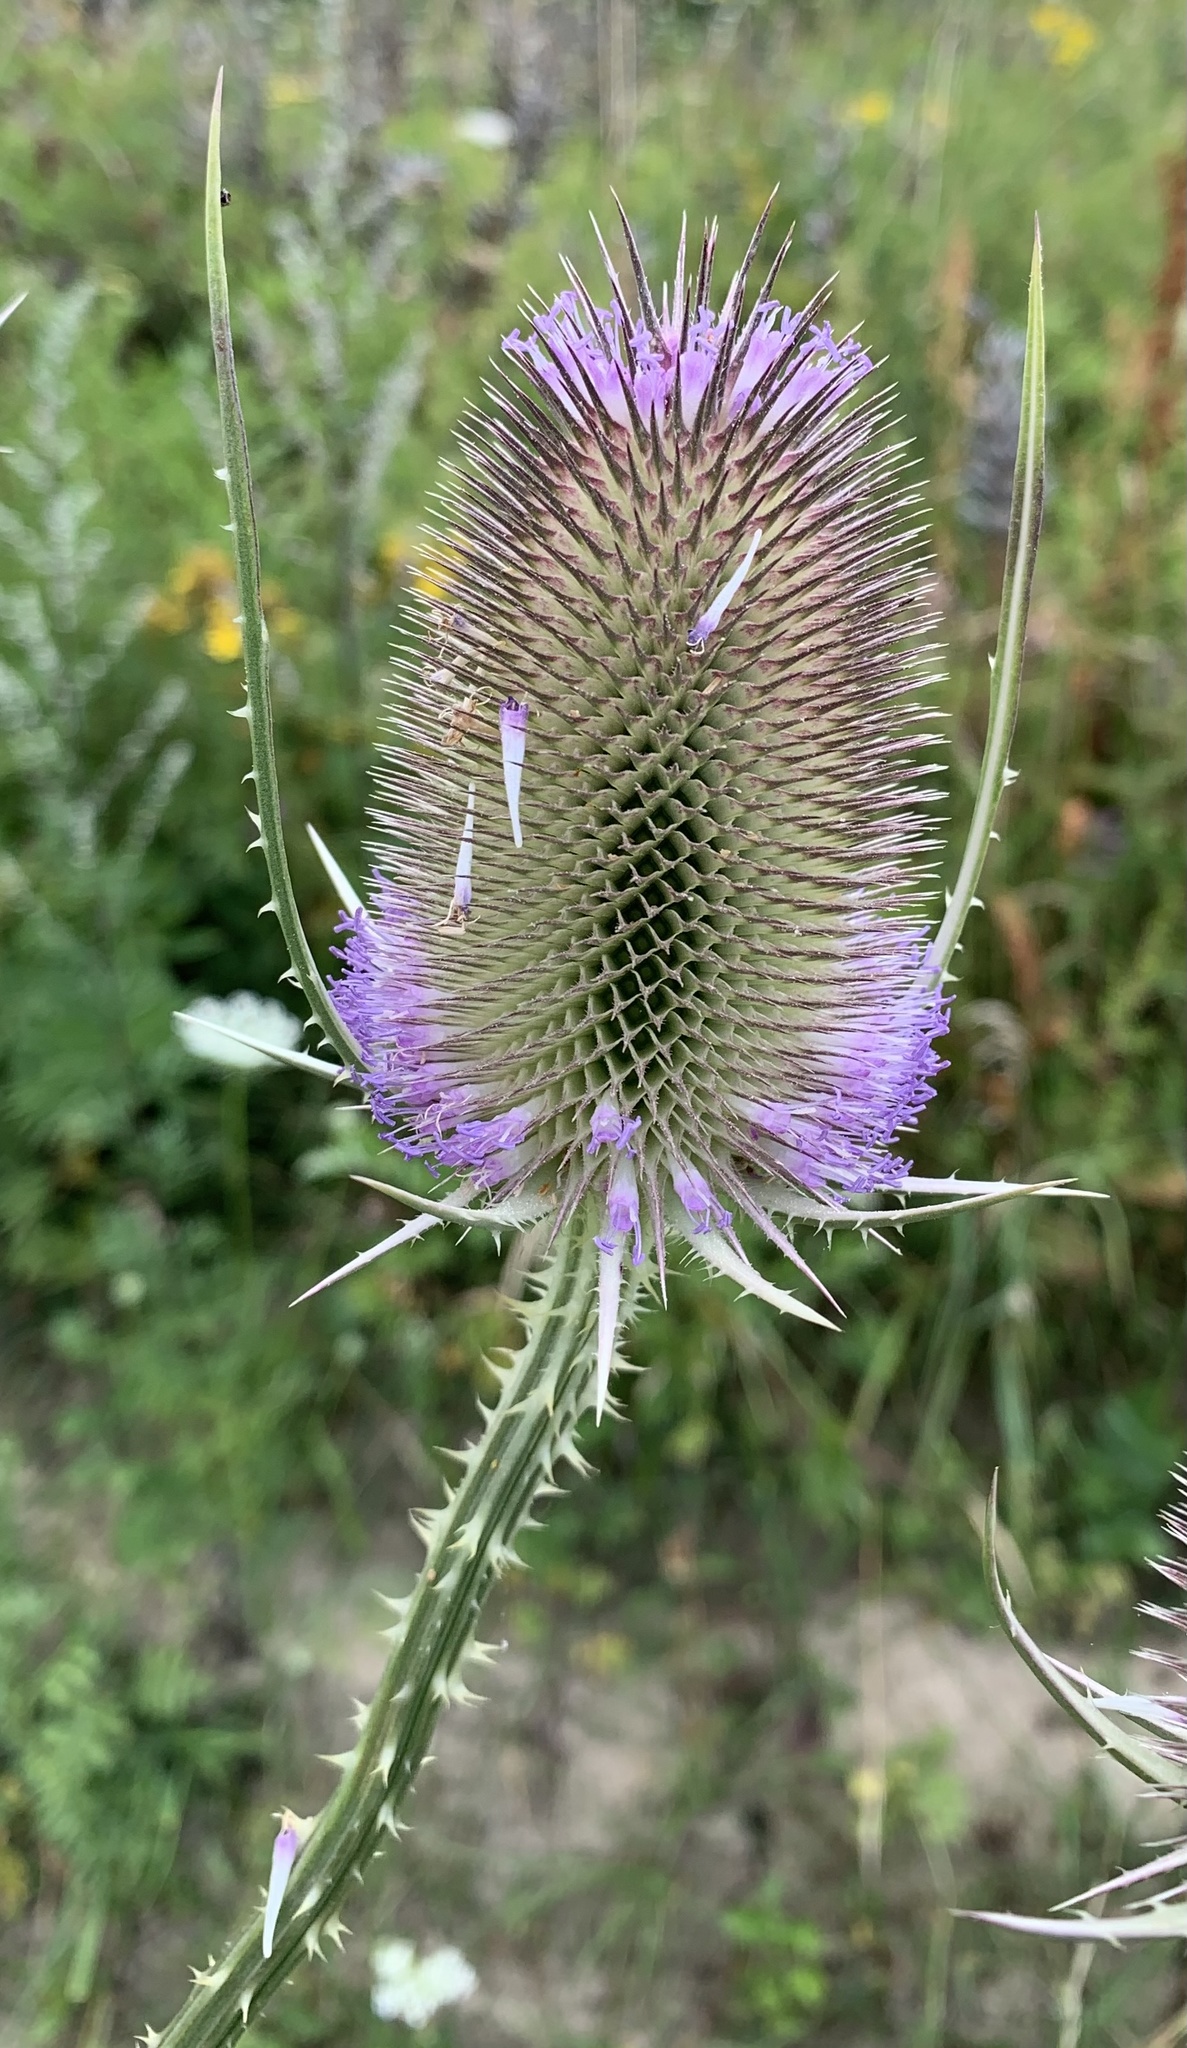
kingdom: Plantae
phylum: Tracheophyta
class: Magnoliopsida
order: Dipsacales
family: Caprifoliaceae
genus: Dipsacus
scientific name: Dipsacus fullonum
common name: Teasel
